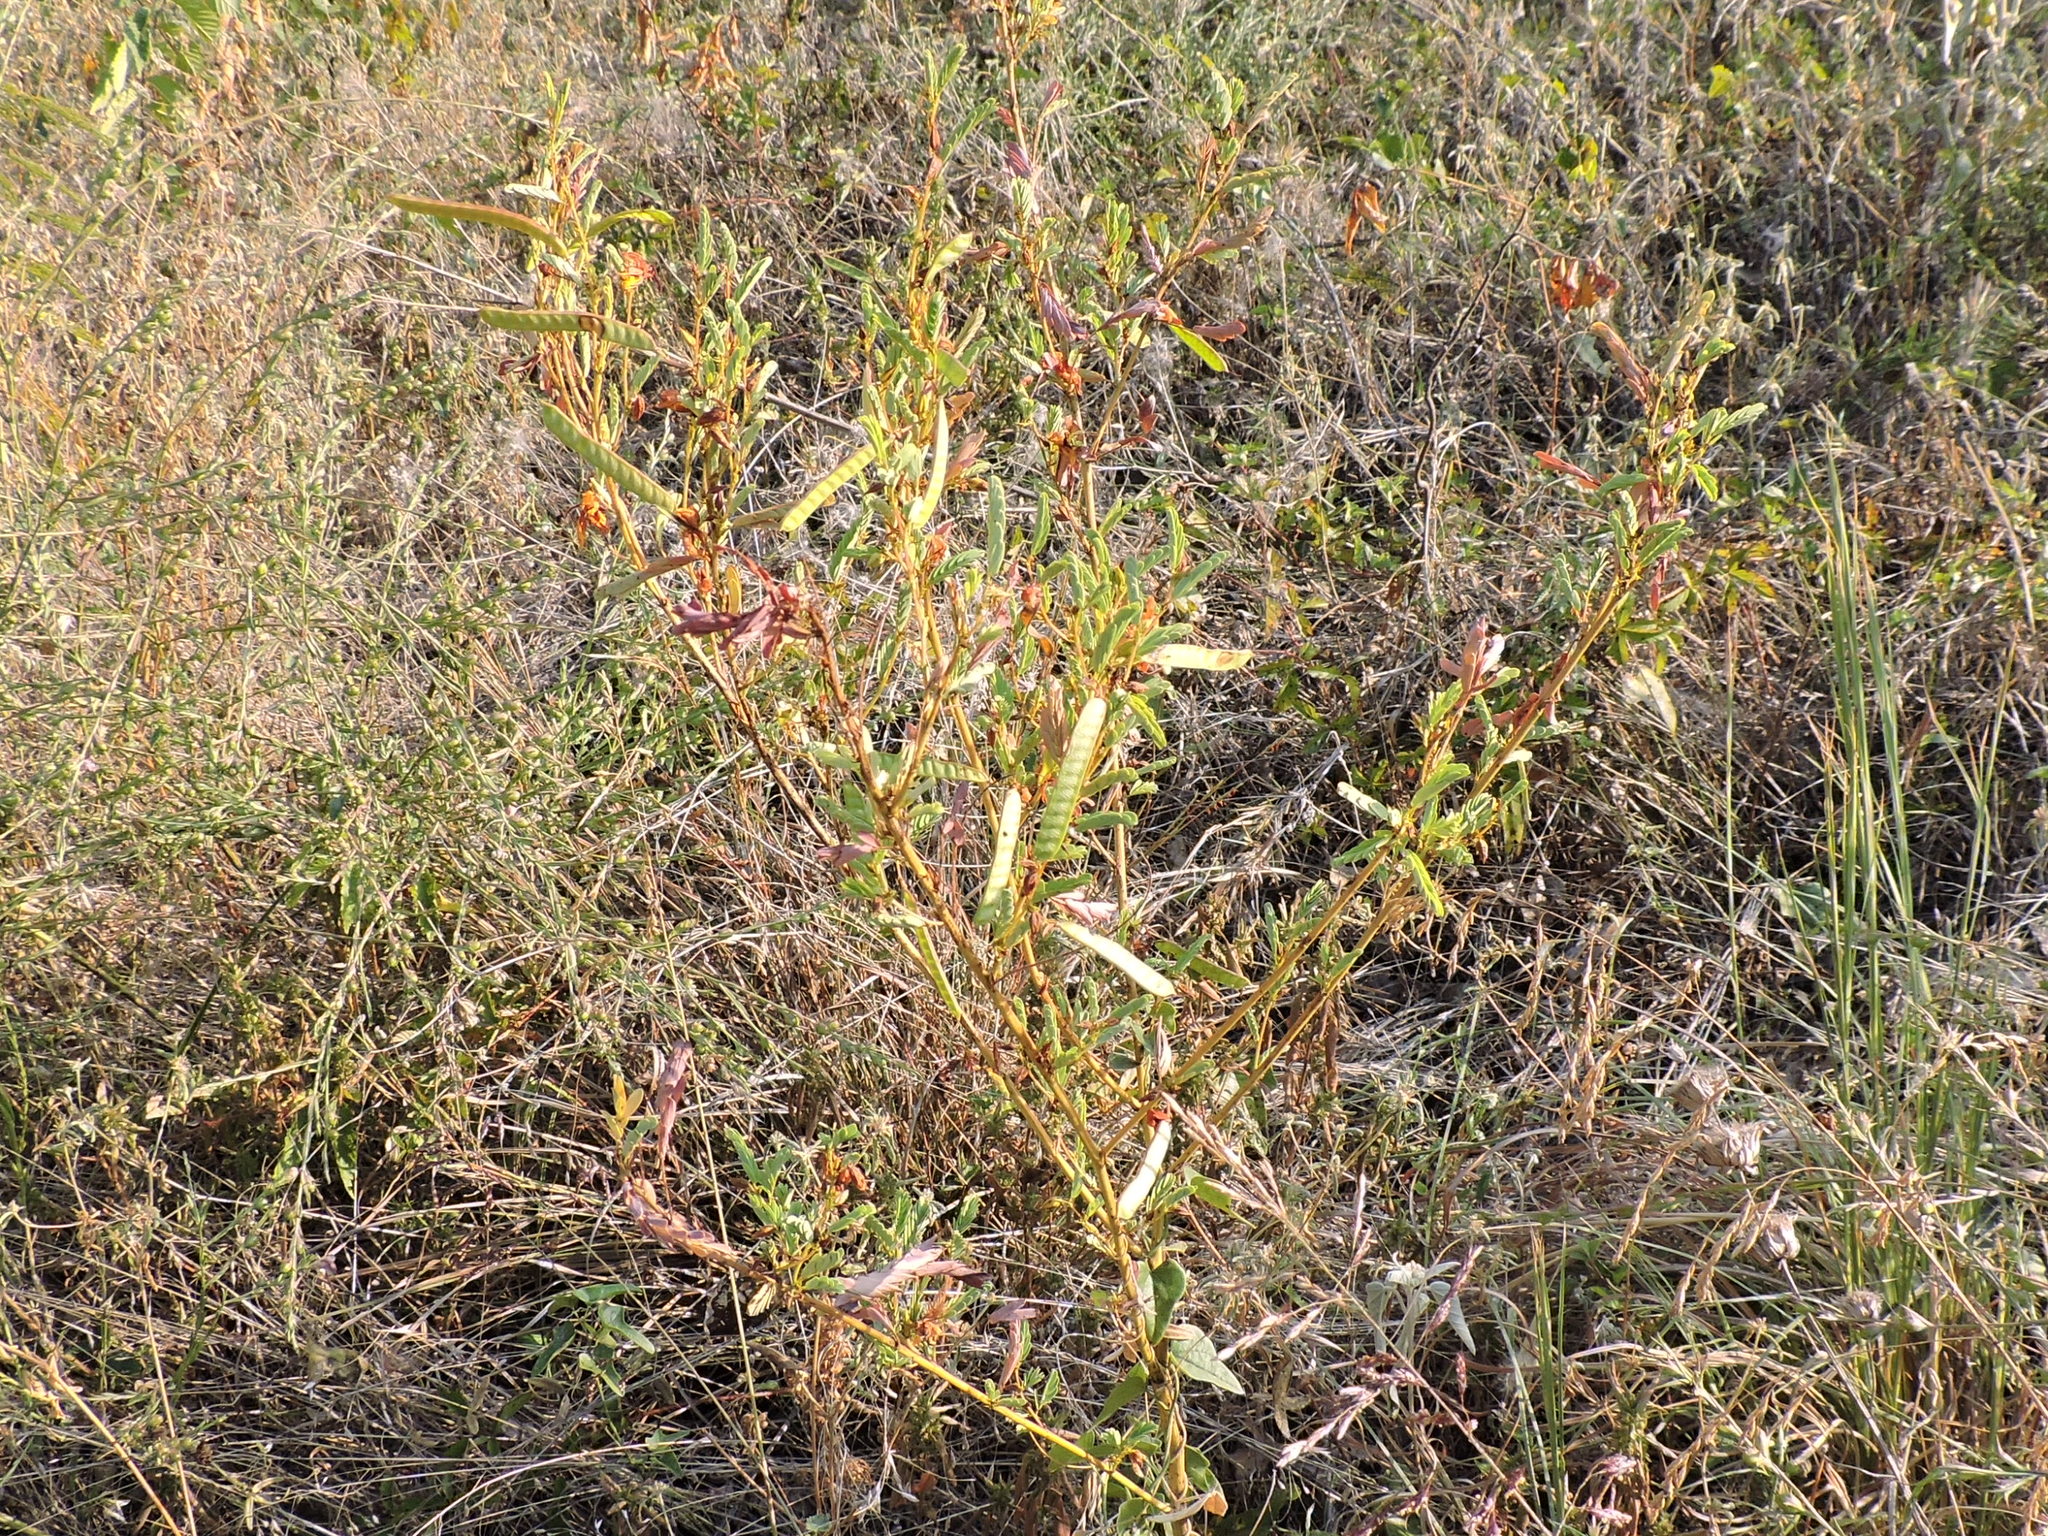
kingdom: Plantae
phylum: Tracheophyta
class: Magnoliopsida
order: Fabales
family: Fabaceae
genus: Chamaecrista
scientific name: Chamaecrista fasciculata
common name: Golden cassia
